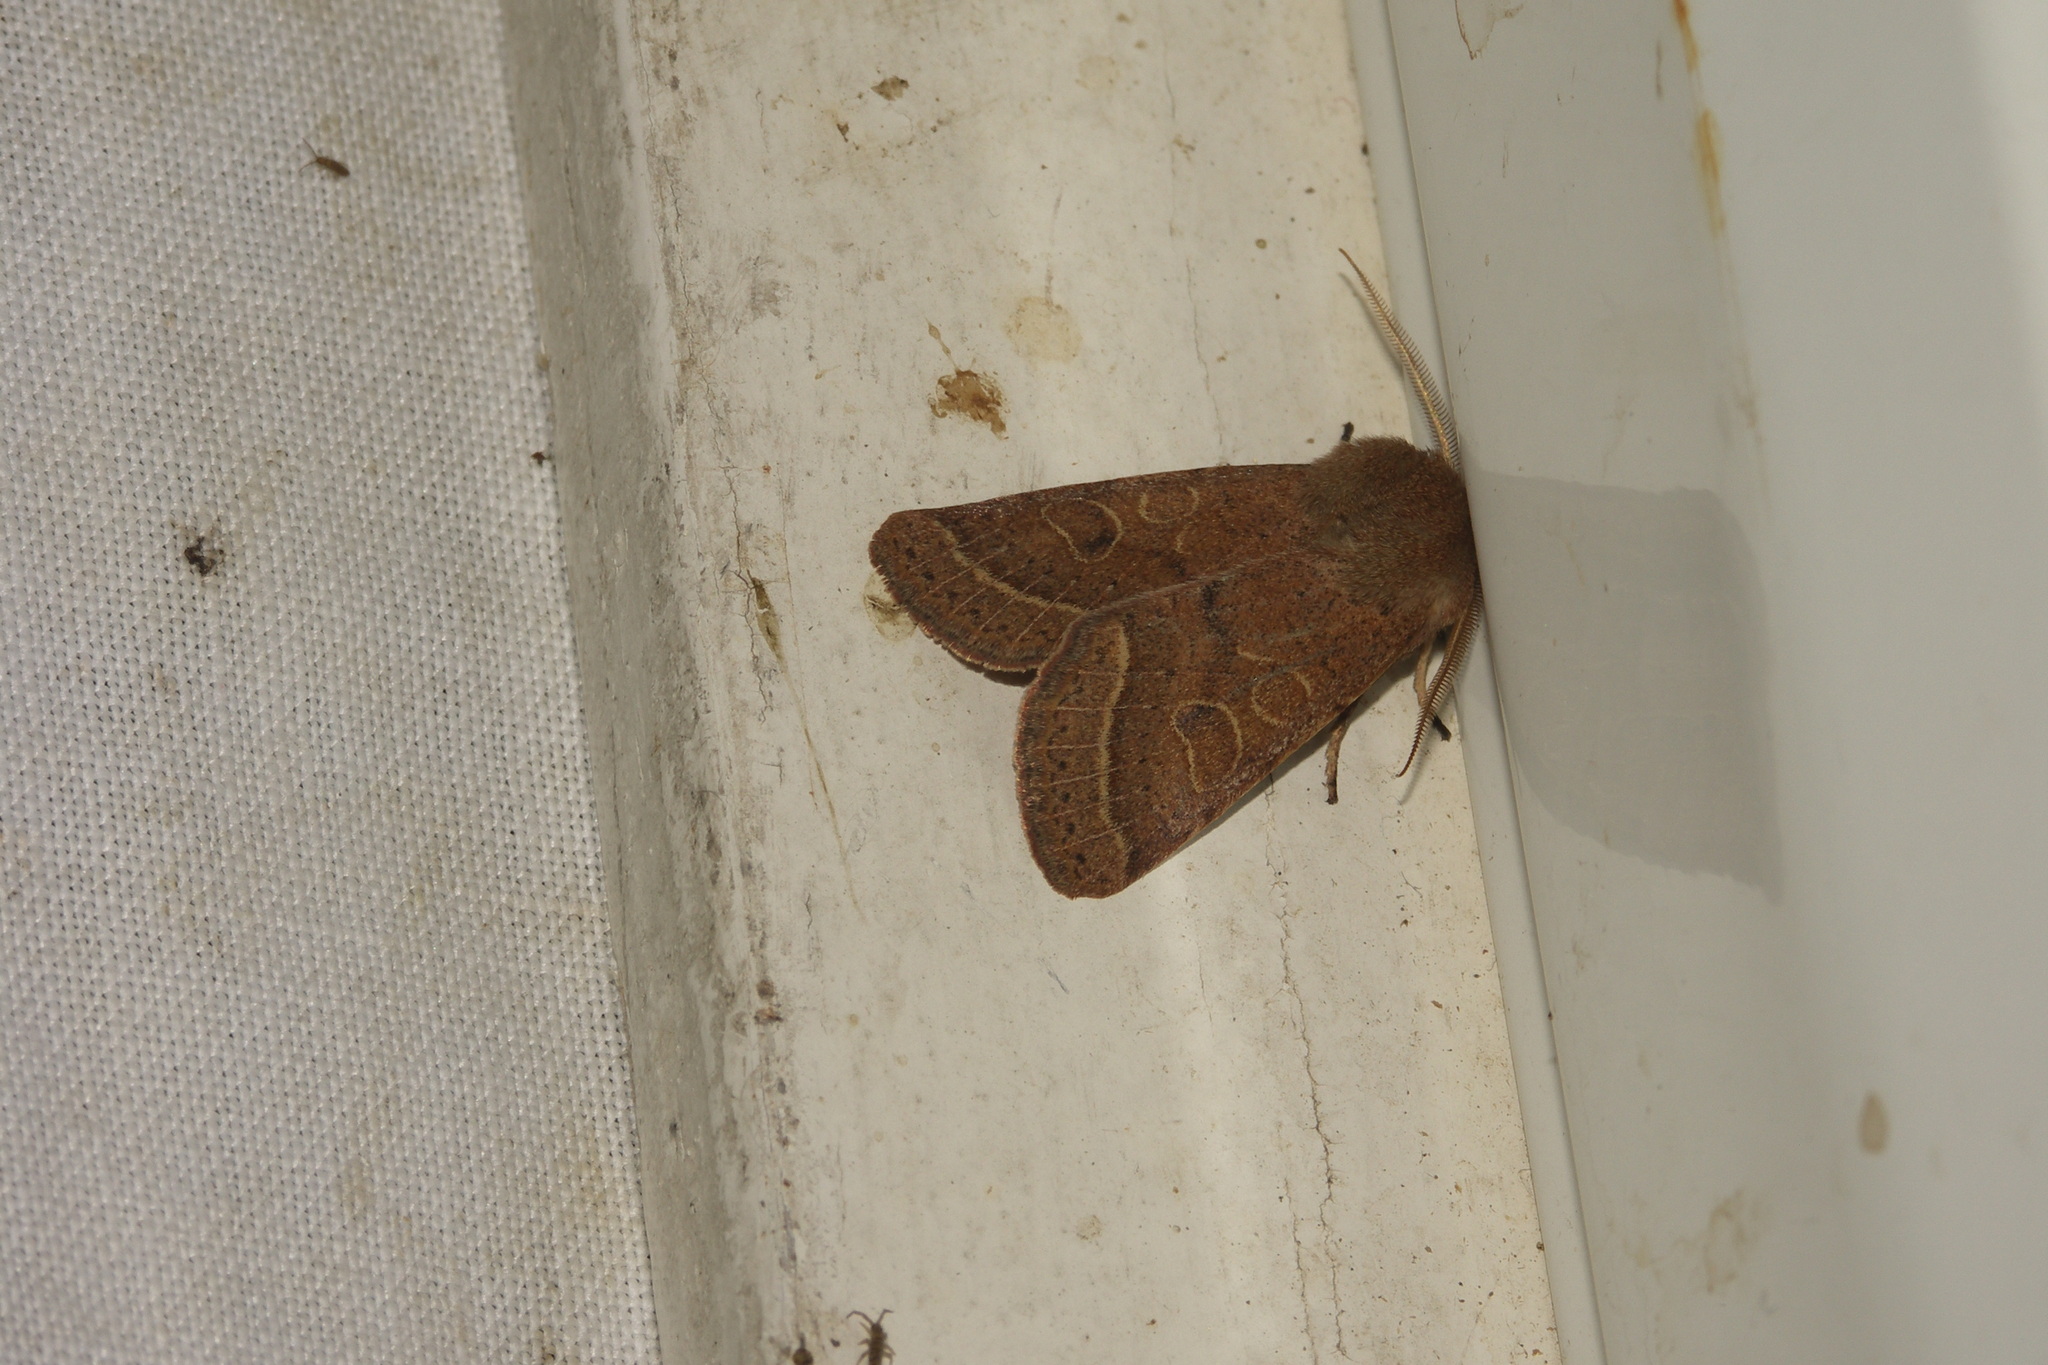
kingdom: Animalia
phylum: Arthropoda
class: Insecta
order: Lepidoptera
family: Noctuidae
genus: Orthosia
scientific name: Orthosia cerasi
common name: Common quaker
